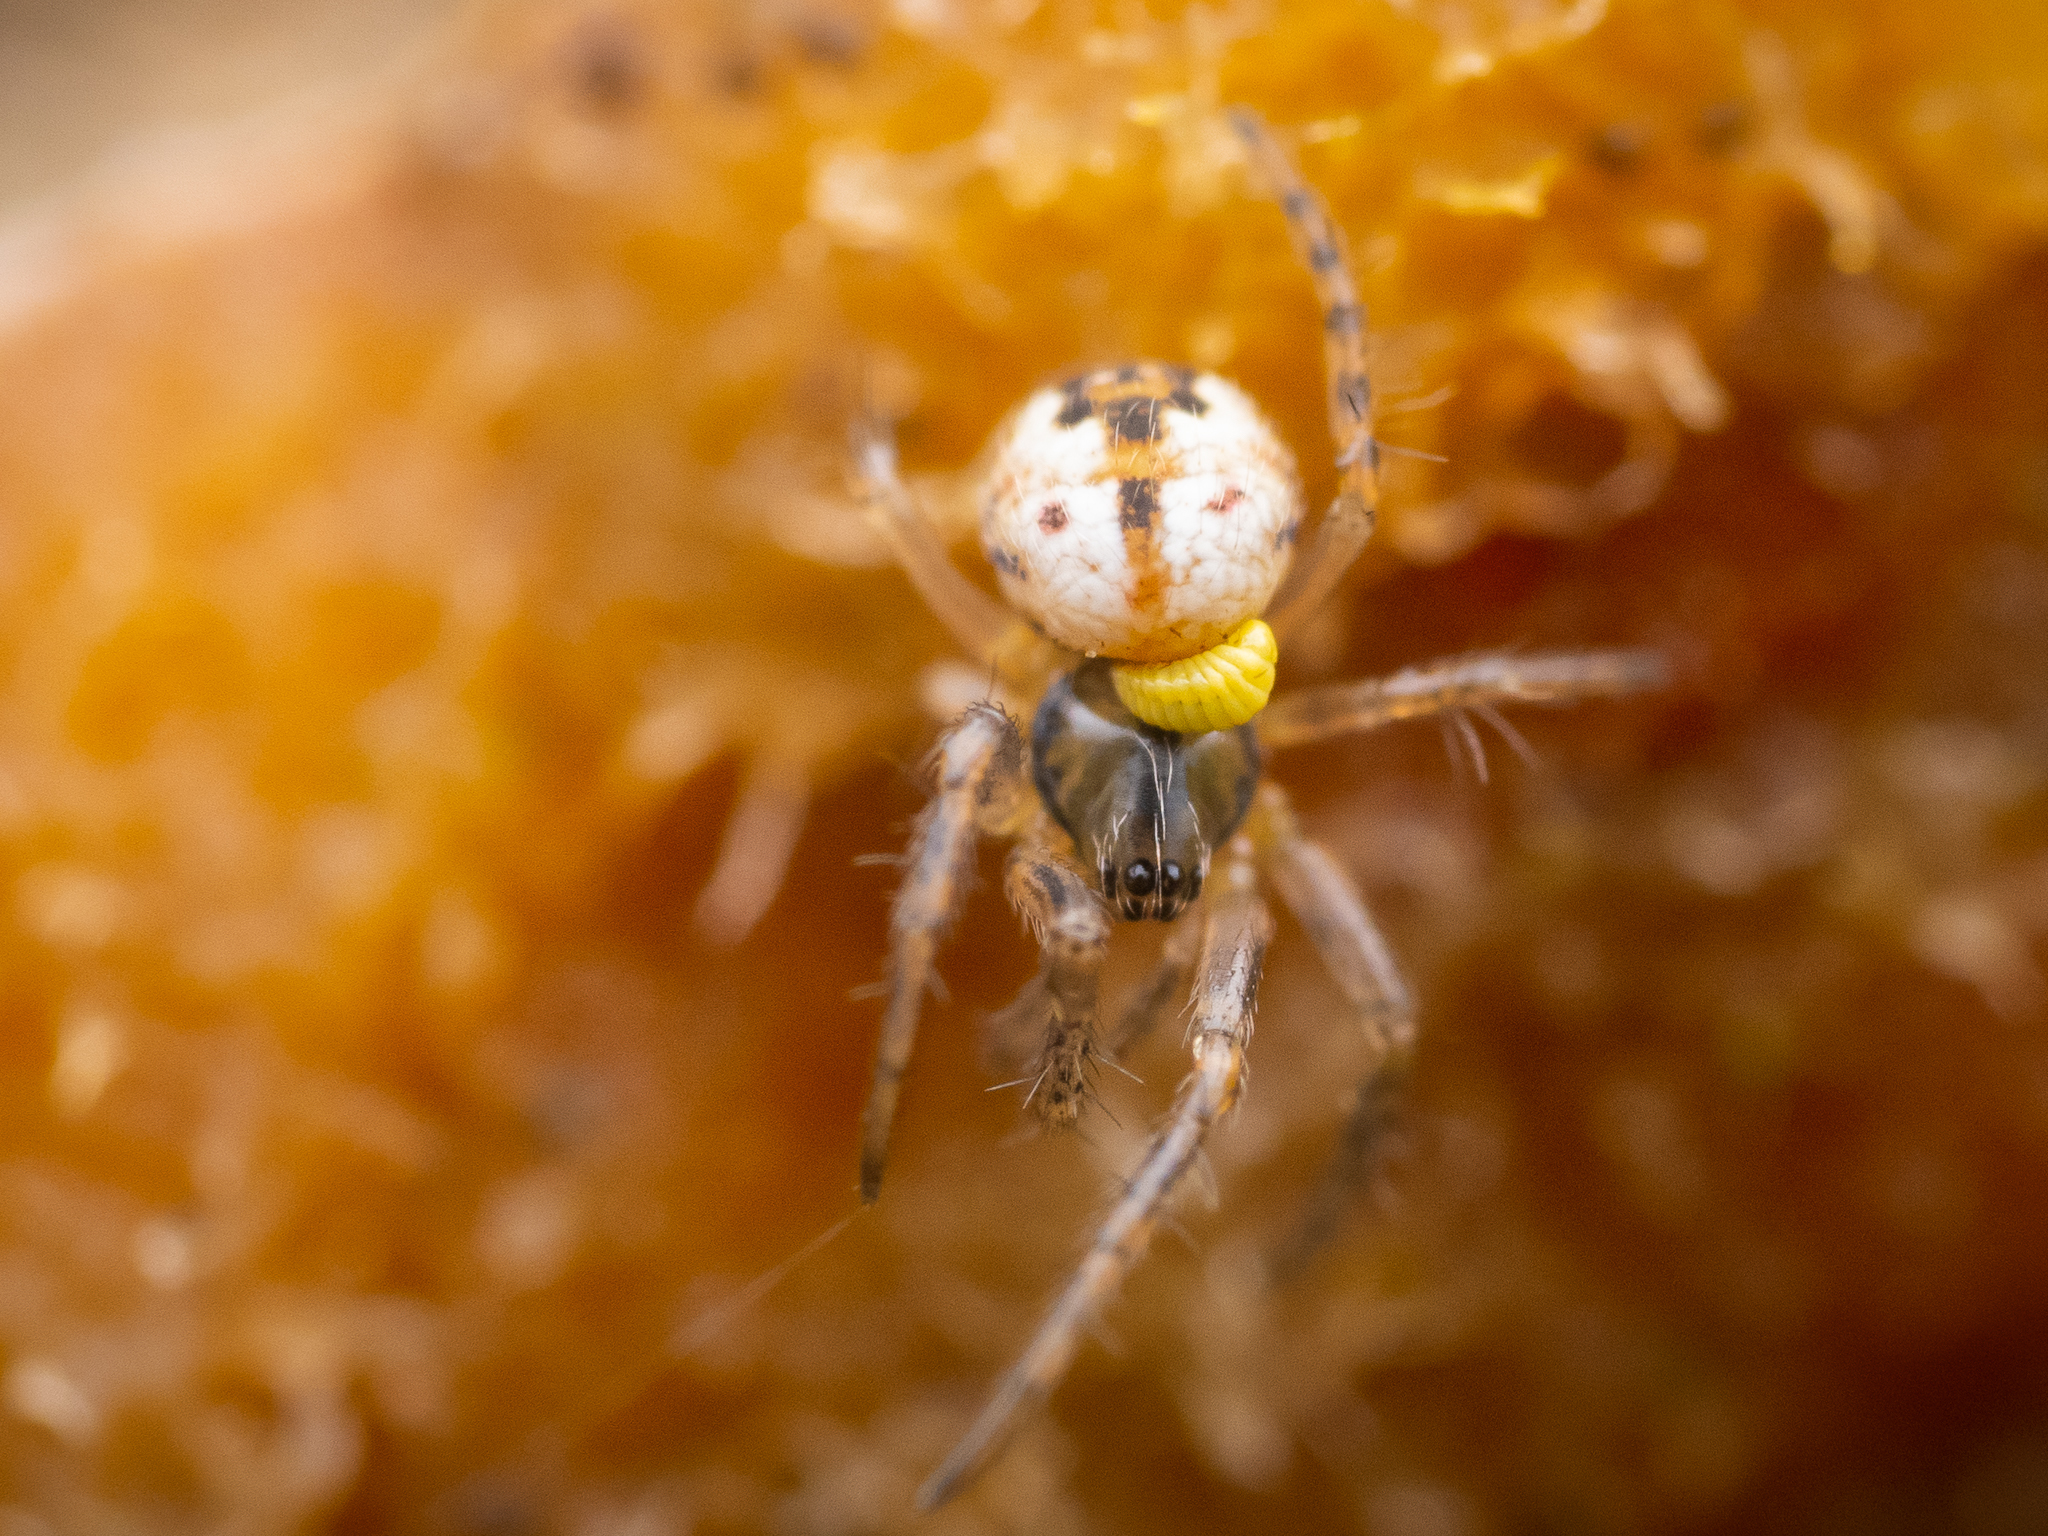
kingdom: Animalia
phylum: Arthropoda
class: Arachnida
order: Araneae
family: Araneidae
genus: Mangora
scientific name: Mangora acalypha
